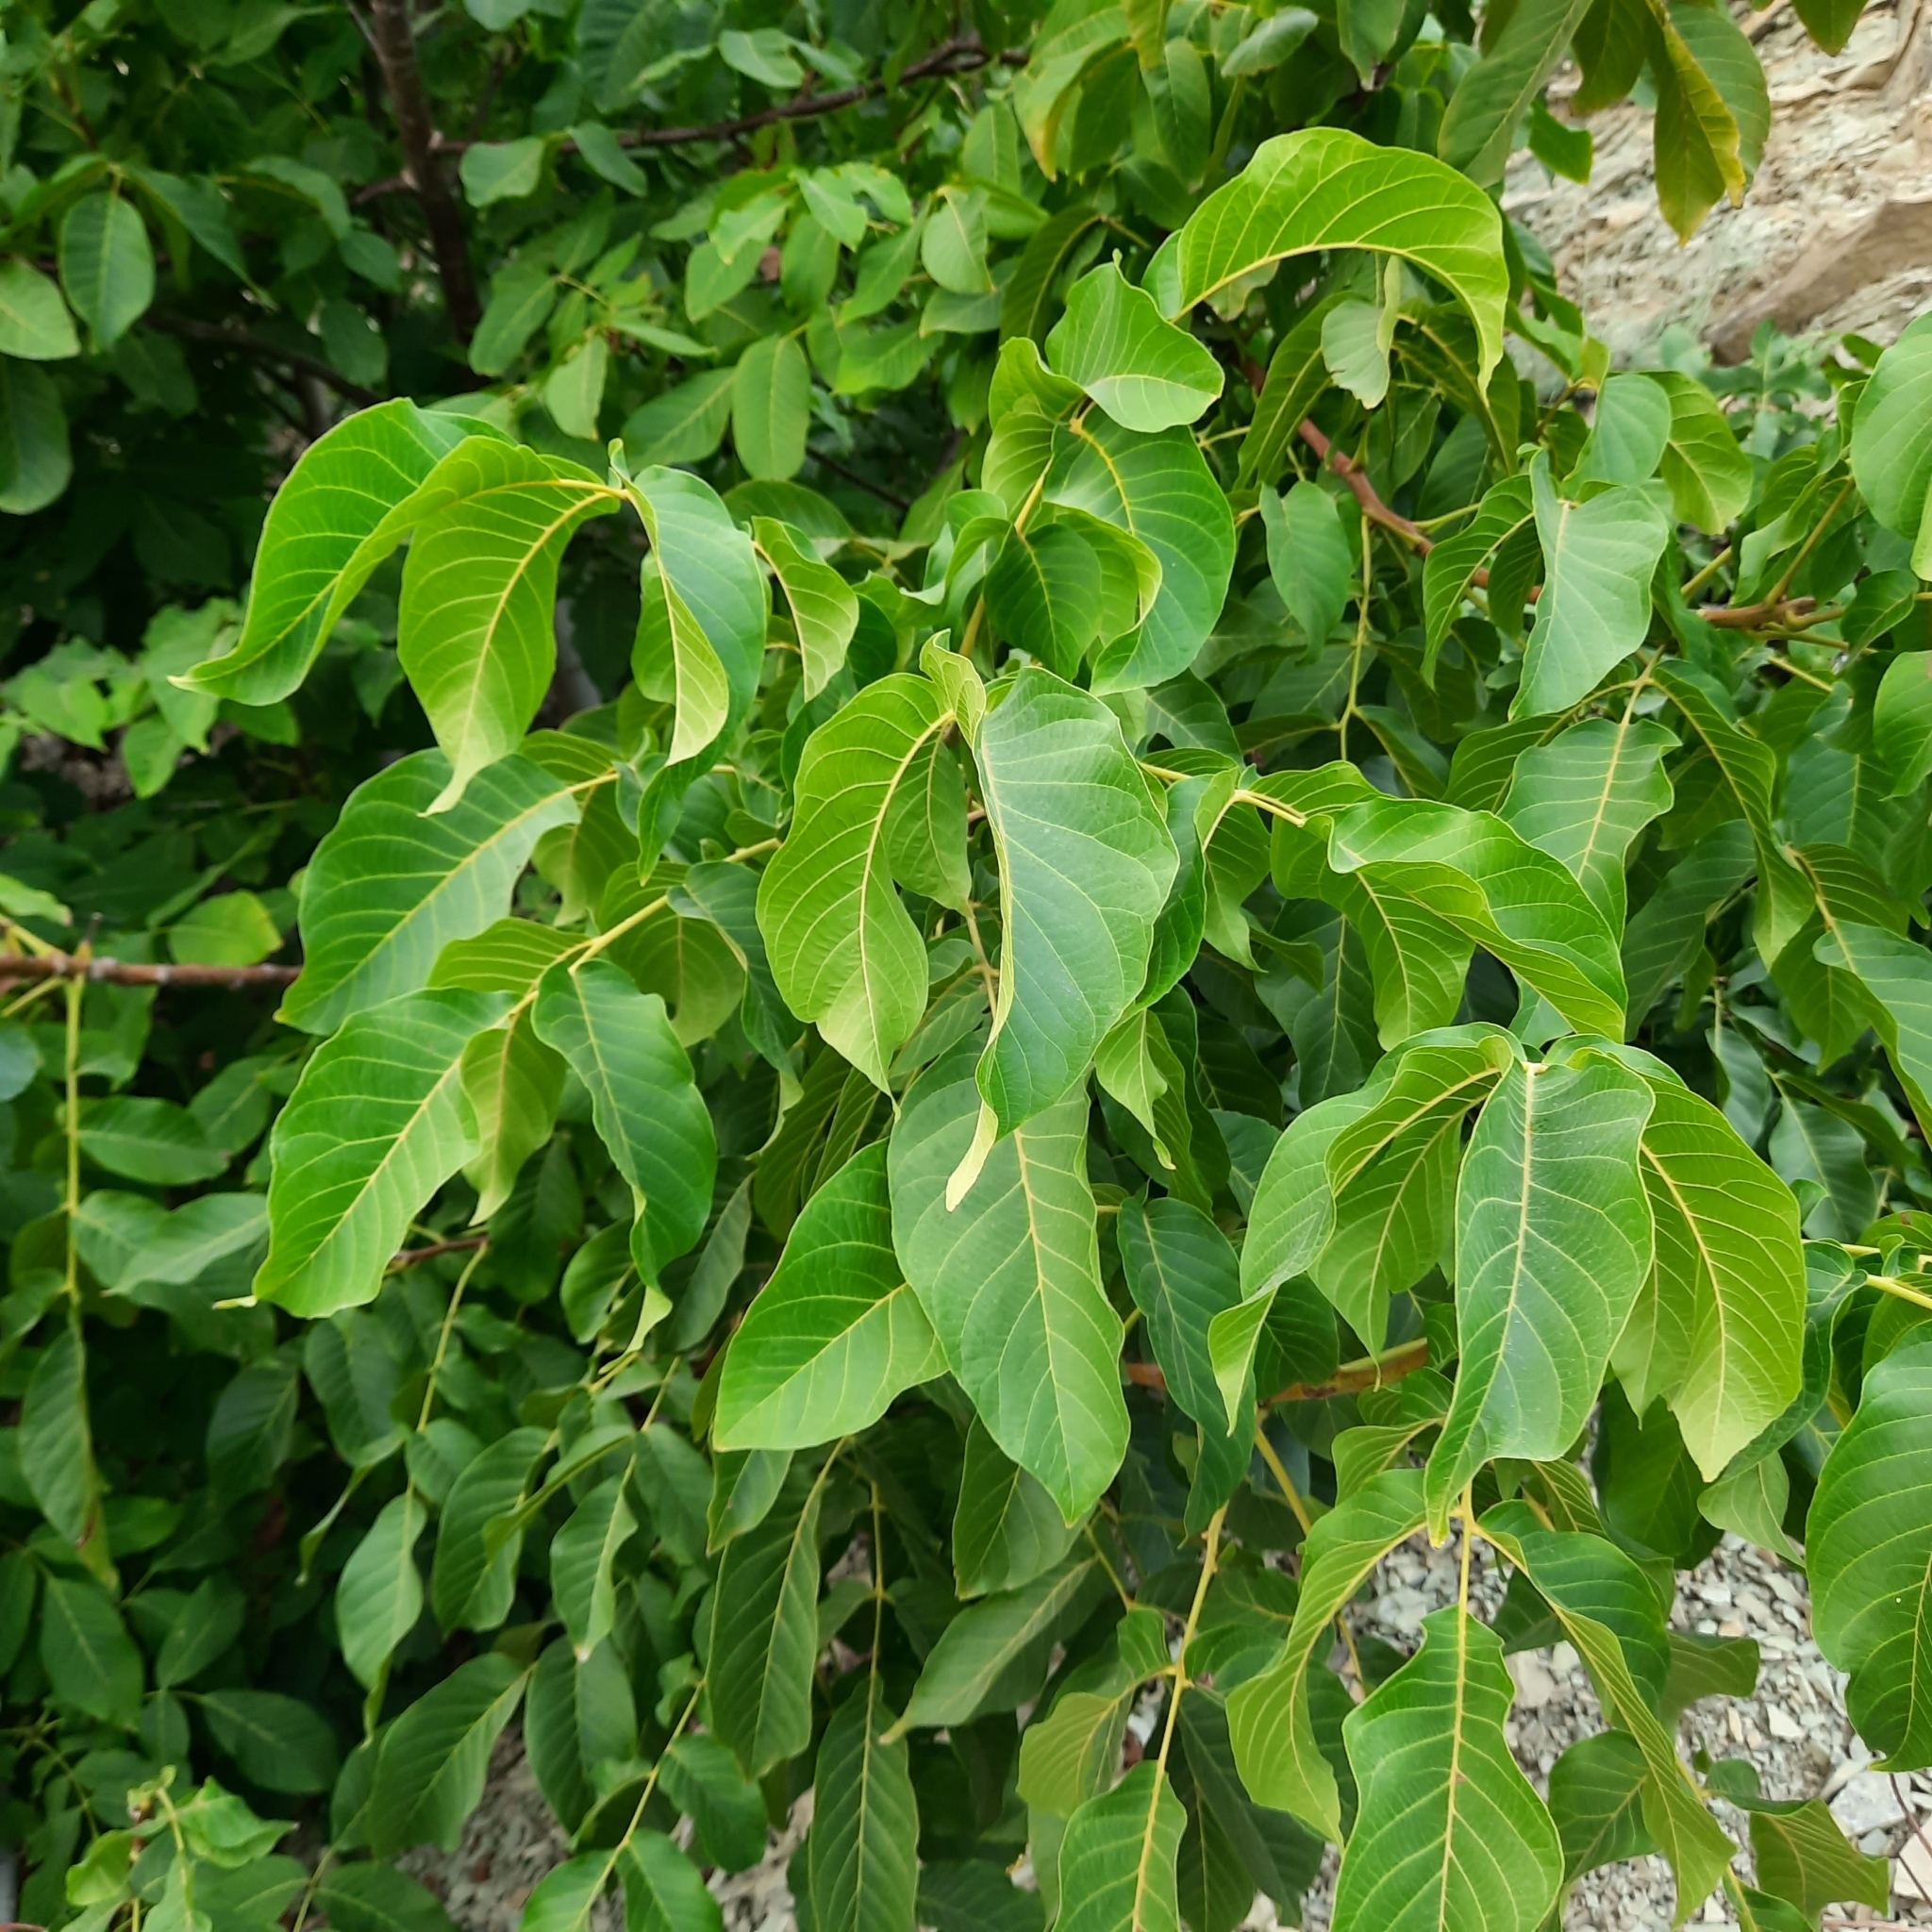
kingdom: Plantae
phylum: Tracheophyta
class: Magnoliopsida
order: Fagales
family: Juglandaceae
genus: Juglans
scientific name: Juglans regia
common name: Walnut
